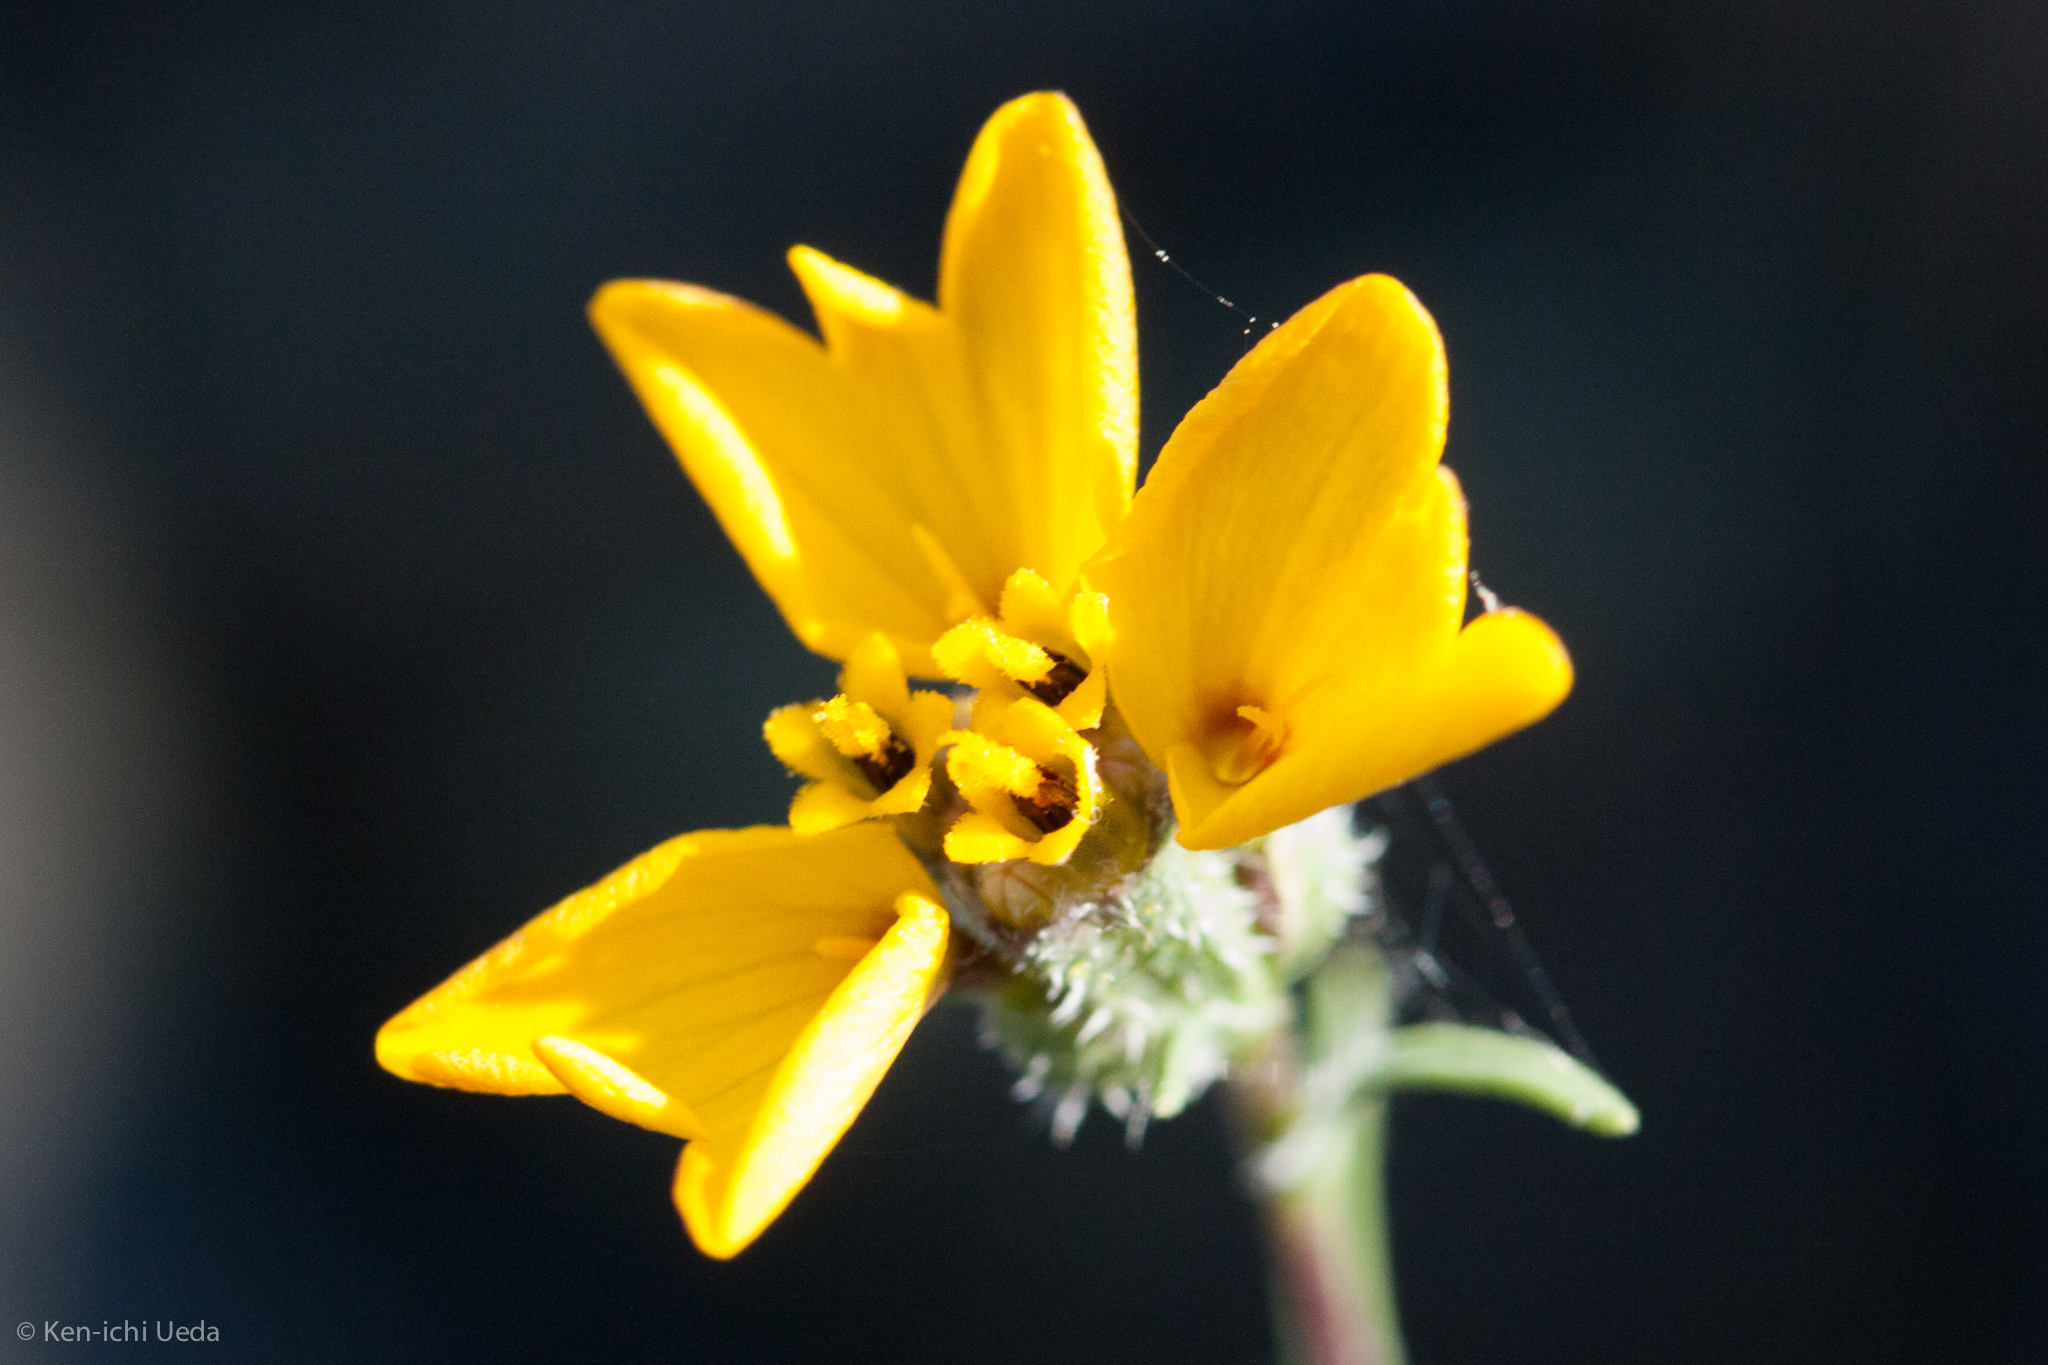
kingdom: Plantae
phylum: Tracheophyta
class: Magnoliopsida
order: Asterales
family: Asteraceae
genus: Calycadenia
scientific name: Calycadenia truncata
